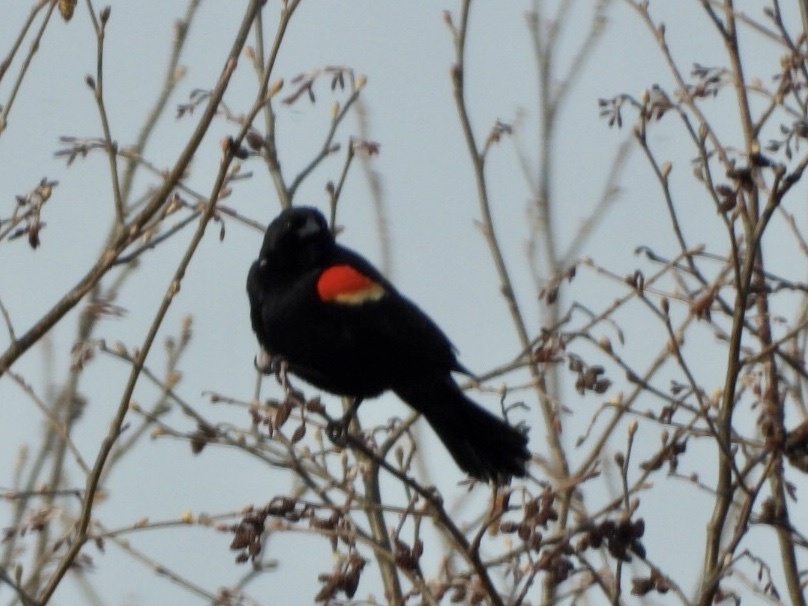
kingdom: Animalia
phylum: Chordata
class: Aves
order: Passeriformes
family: Icteridae
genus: Agelaius
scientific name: Agelaius phoeniceus
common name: Red-winged blackbird
